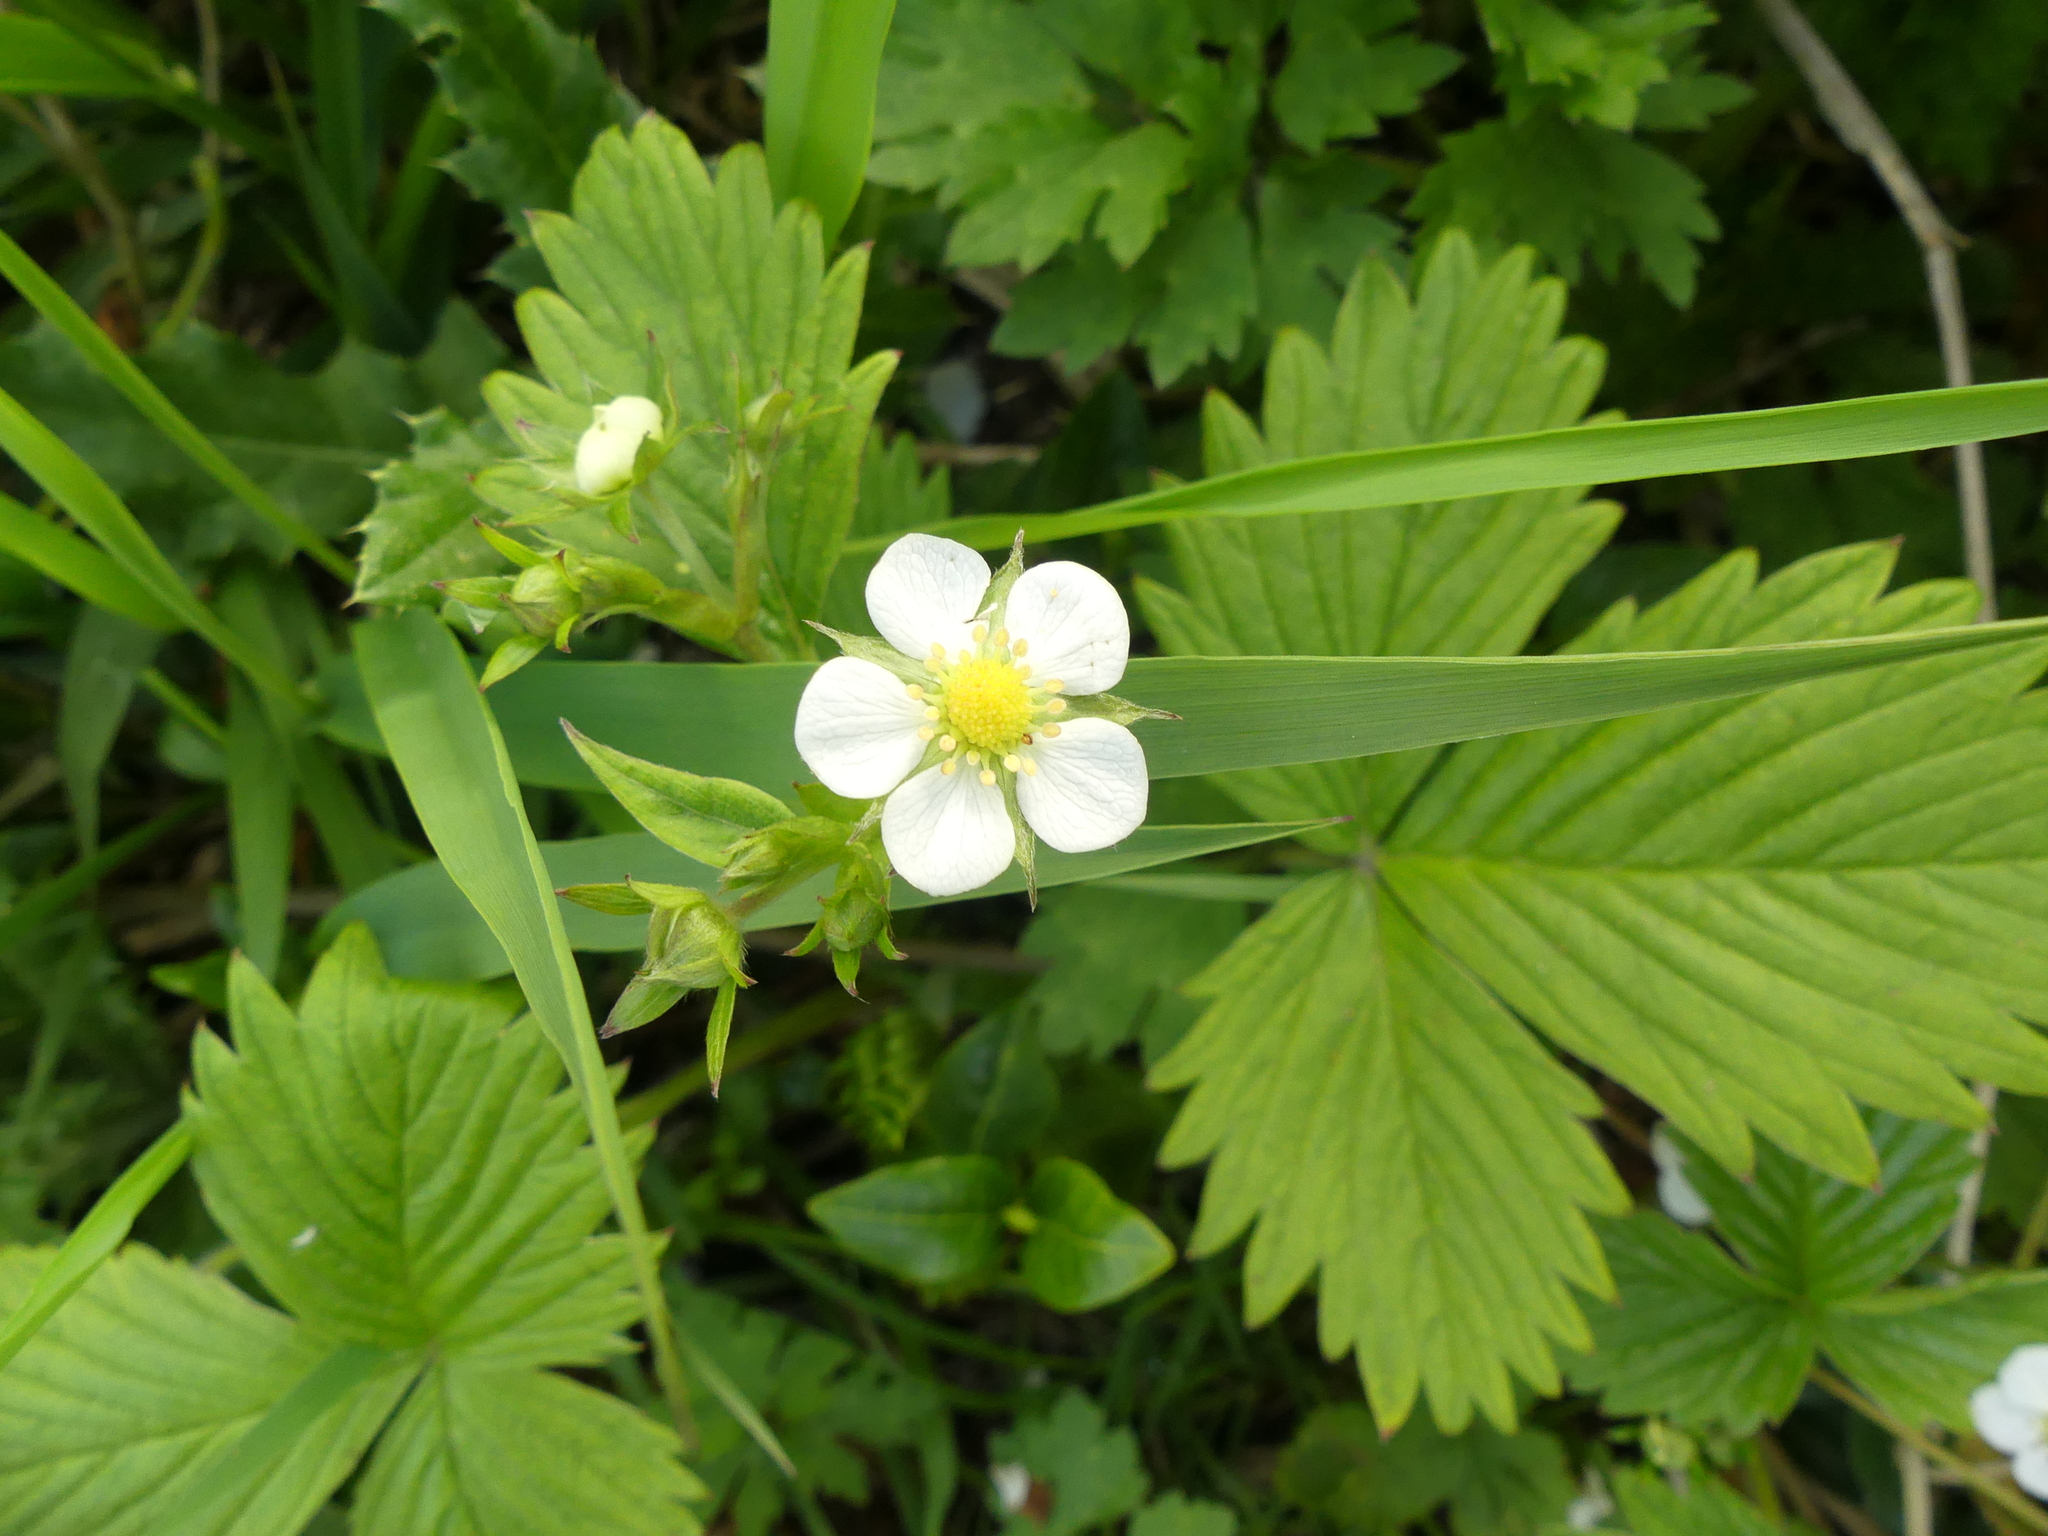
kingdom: Plantae
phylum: Tracheophyta
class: Magnoliopsida
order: Rosales
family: Rosaceae
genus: Fragaria
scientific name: Fragaria vesca
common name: Wild strawberry
